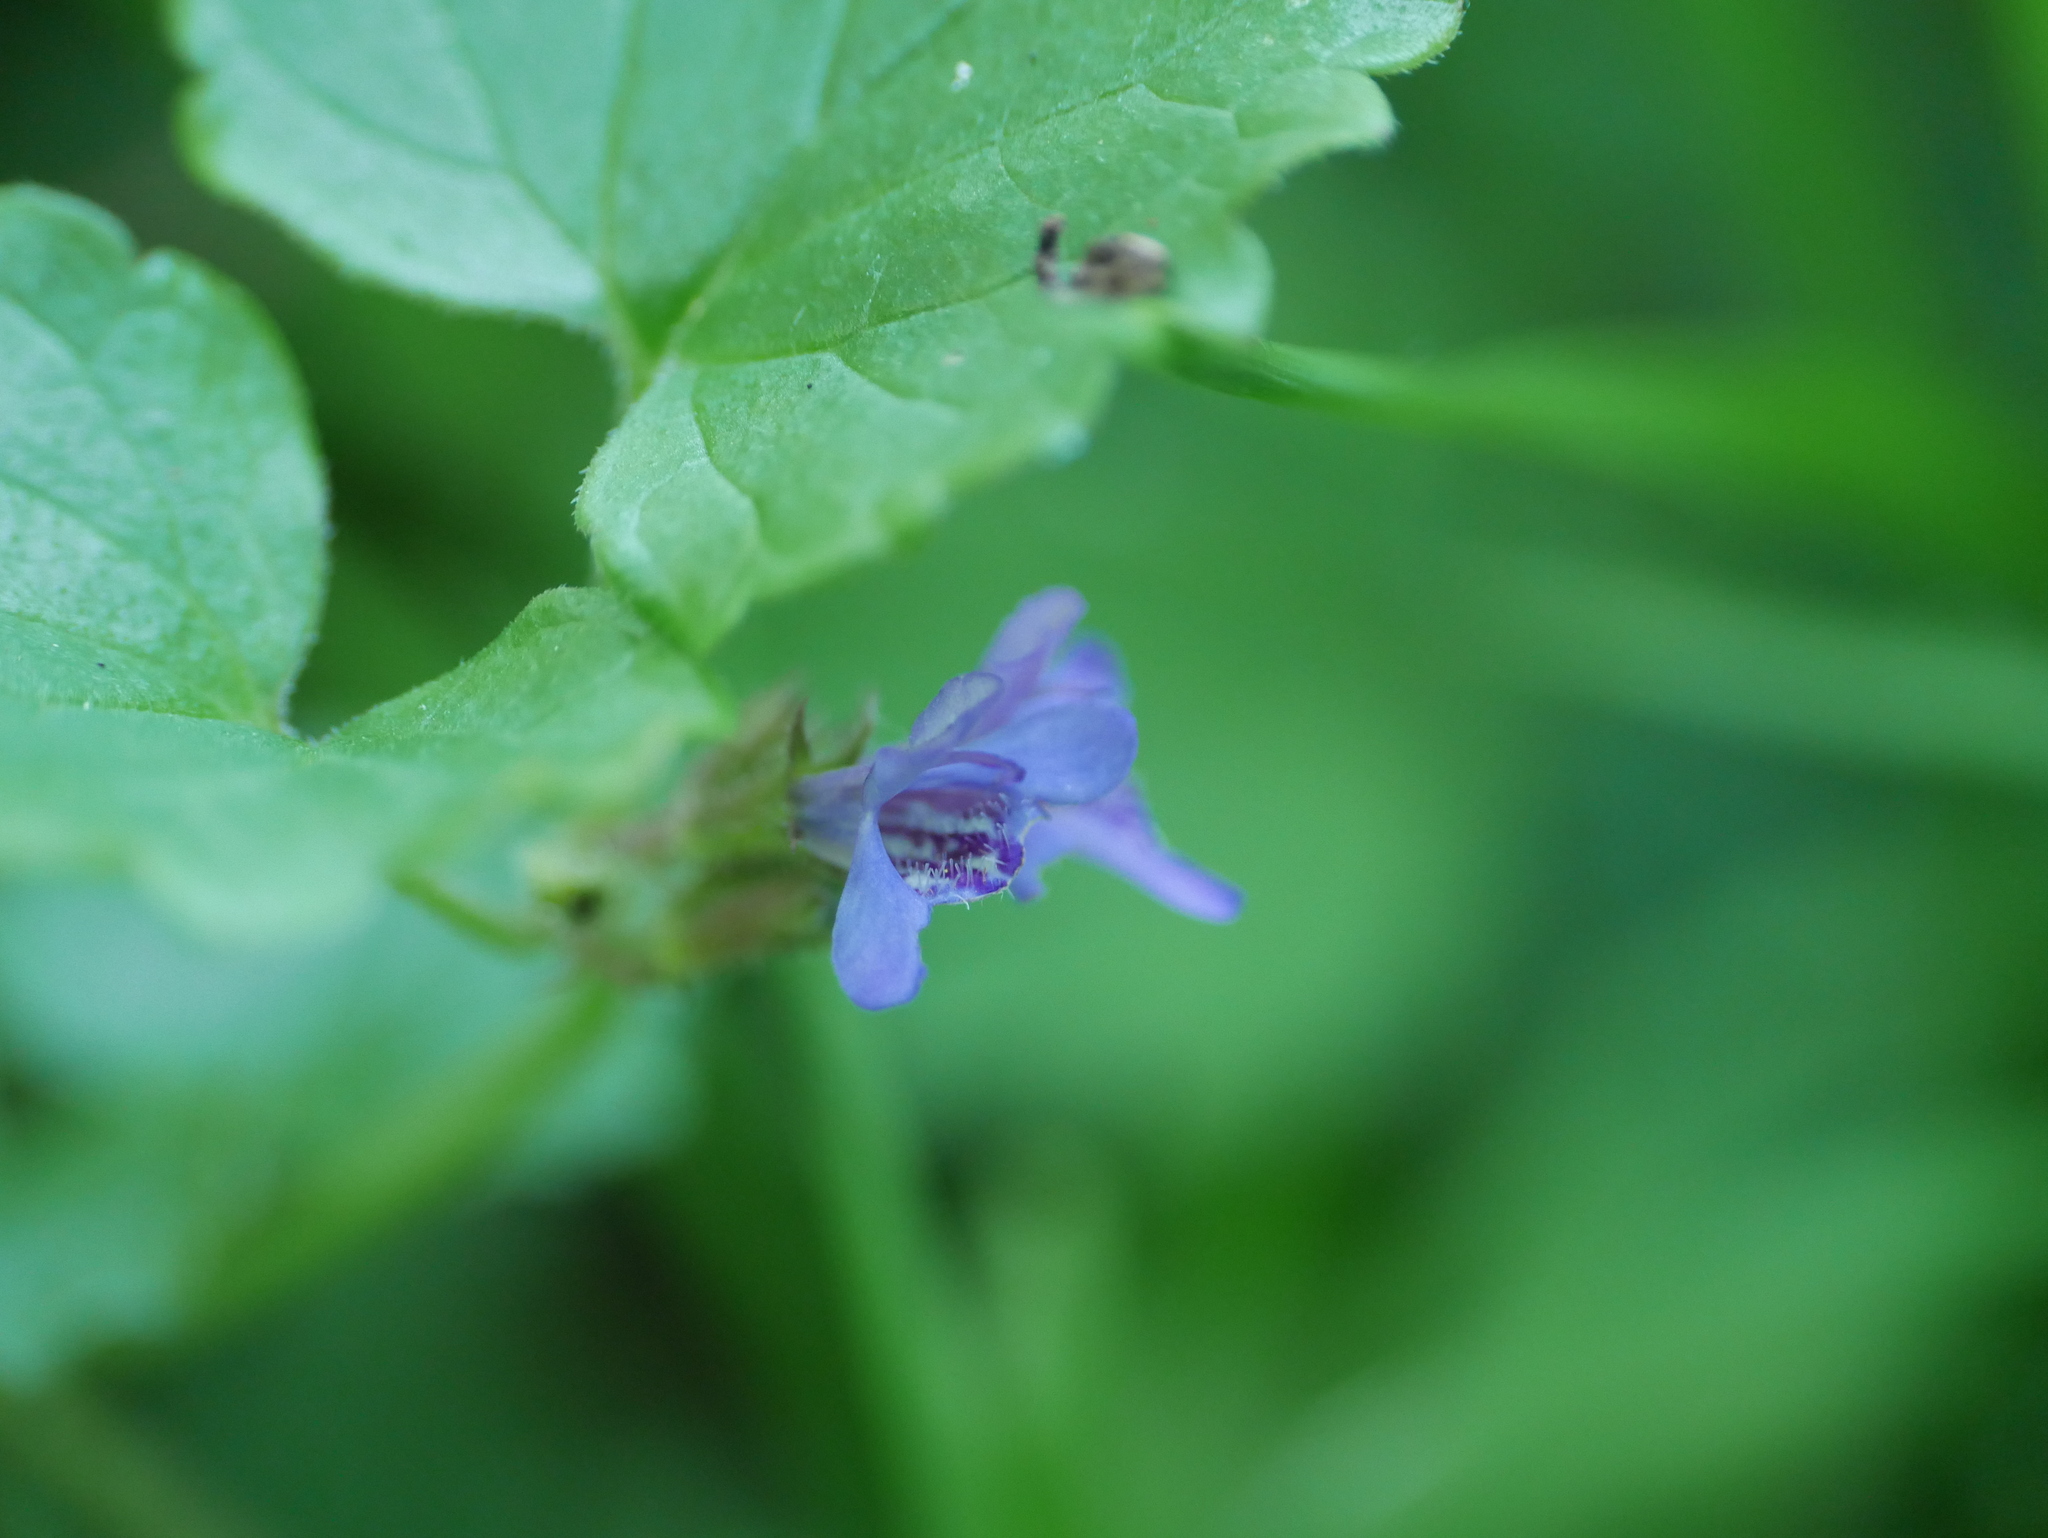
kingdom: Plantae
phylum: Tracheophyta
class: Magnoliopsida
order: Lamiales
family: Lamiaceae
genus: Glechoma
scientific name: Glechoma hederacea
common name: Ground ivy
